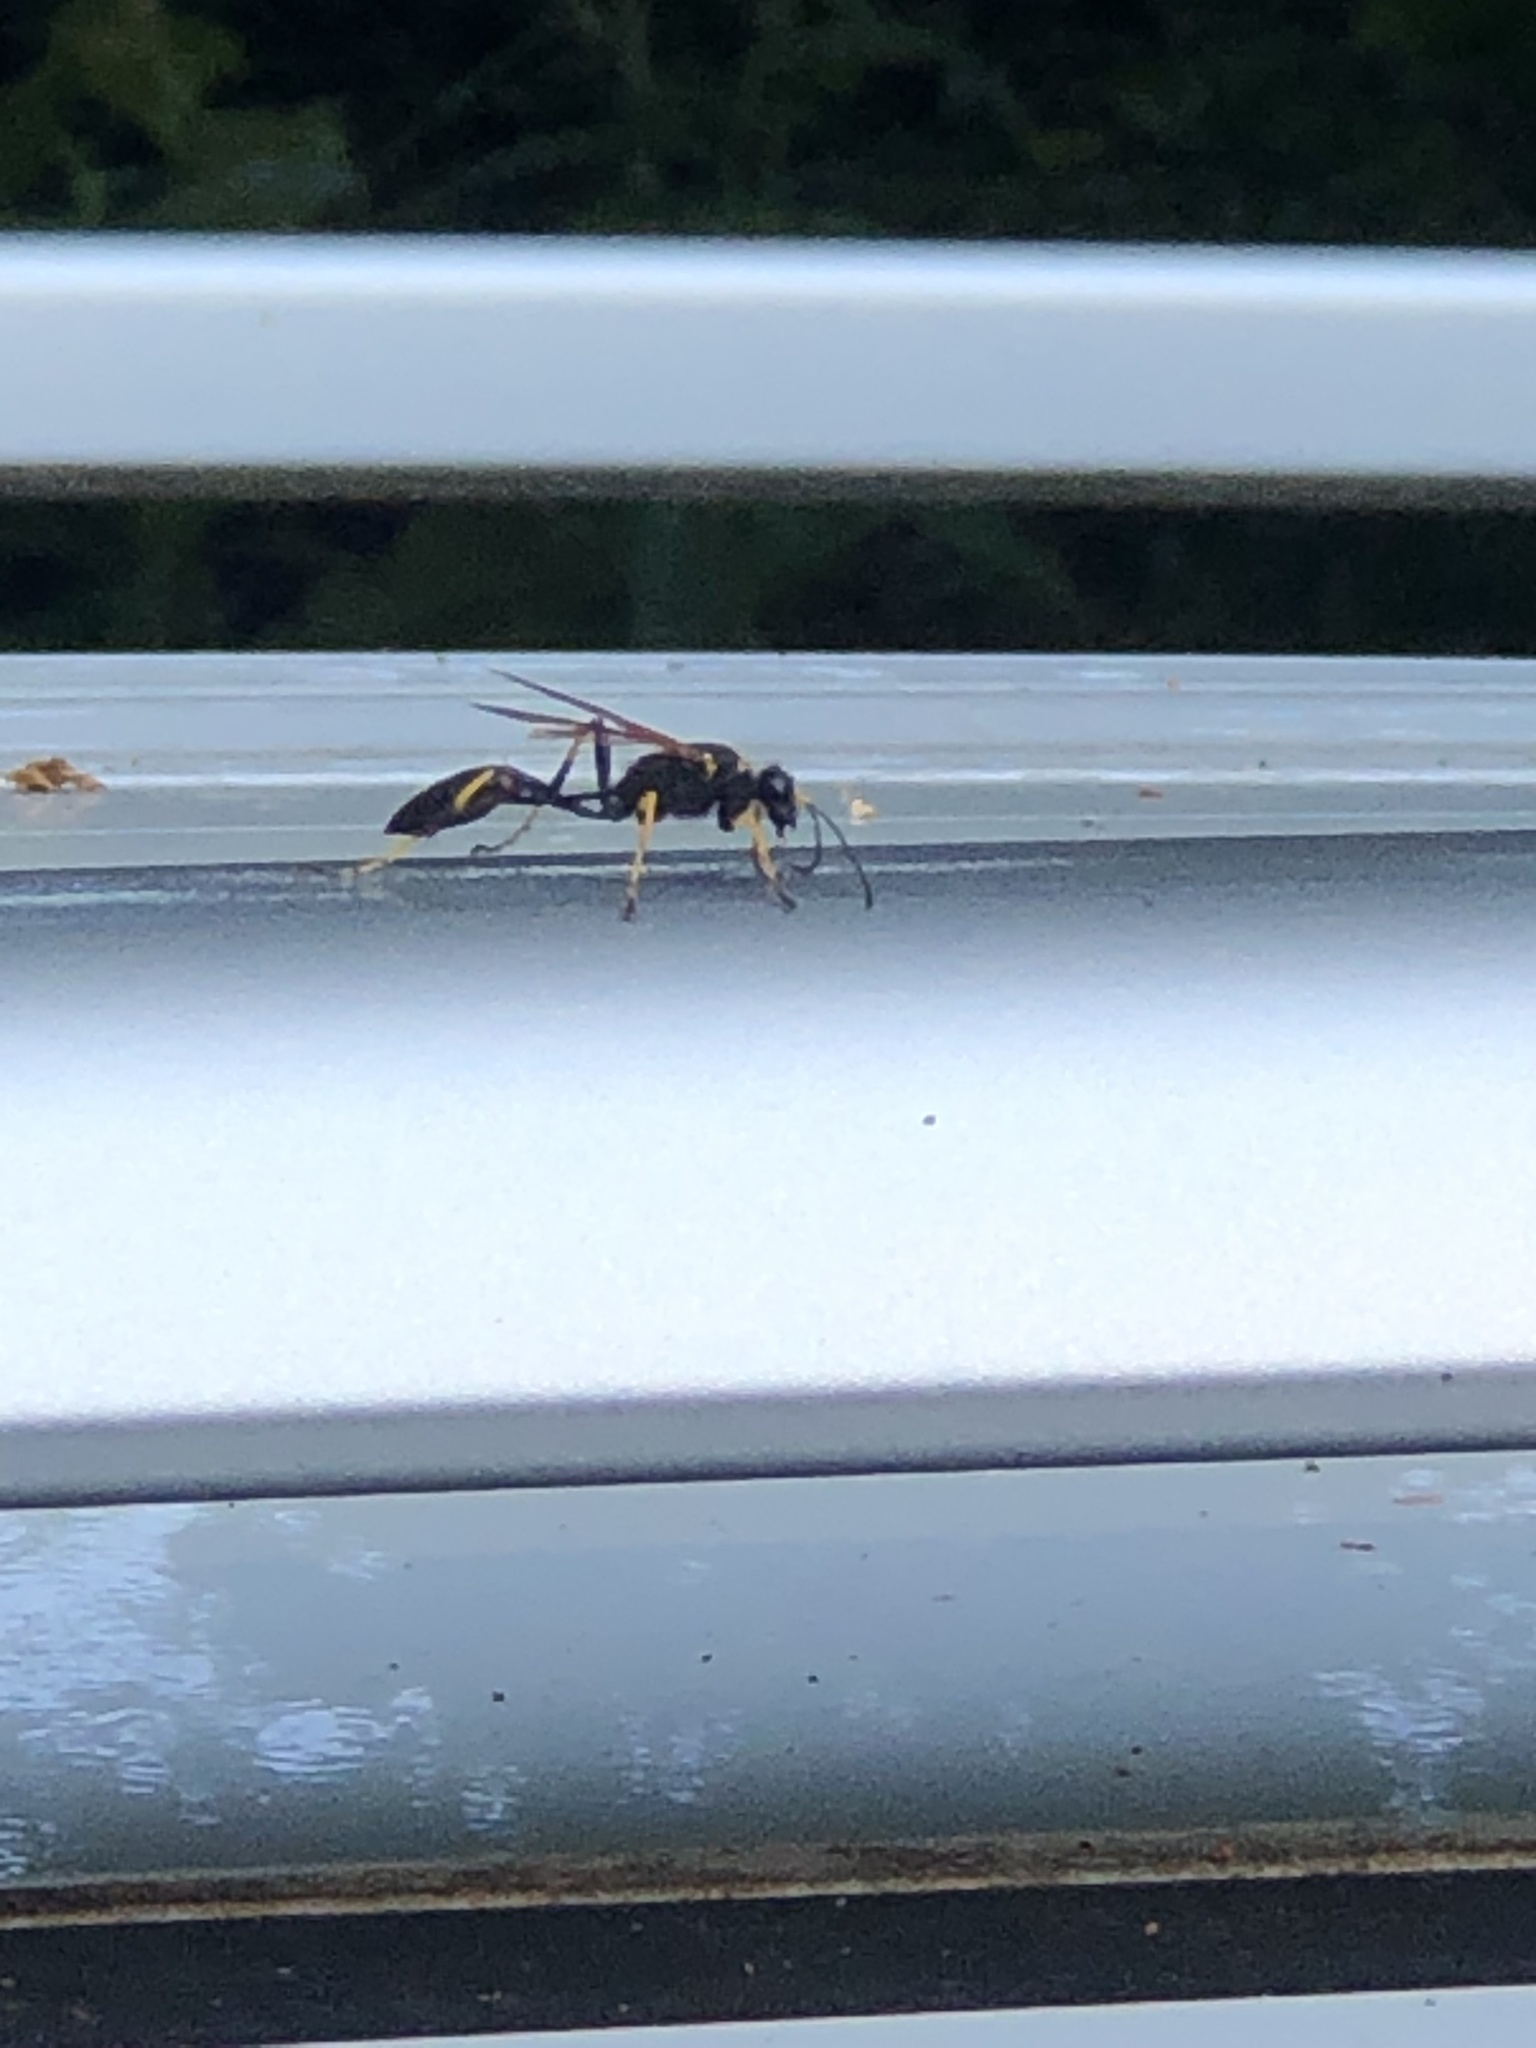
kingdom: Animalia
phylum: Arthropoda
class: Insecta
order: Hymenoptera
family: Sphecidae
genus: Sceliphron
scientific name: Sceliphron caementarium
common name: Mud dauber
